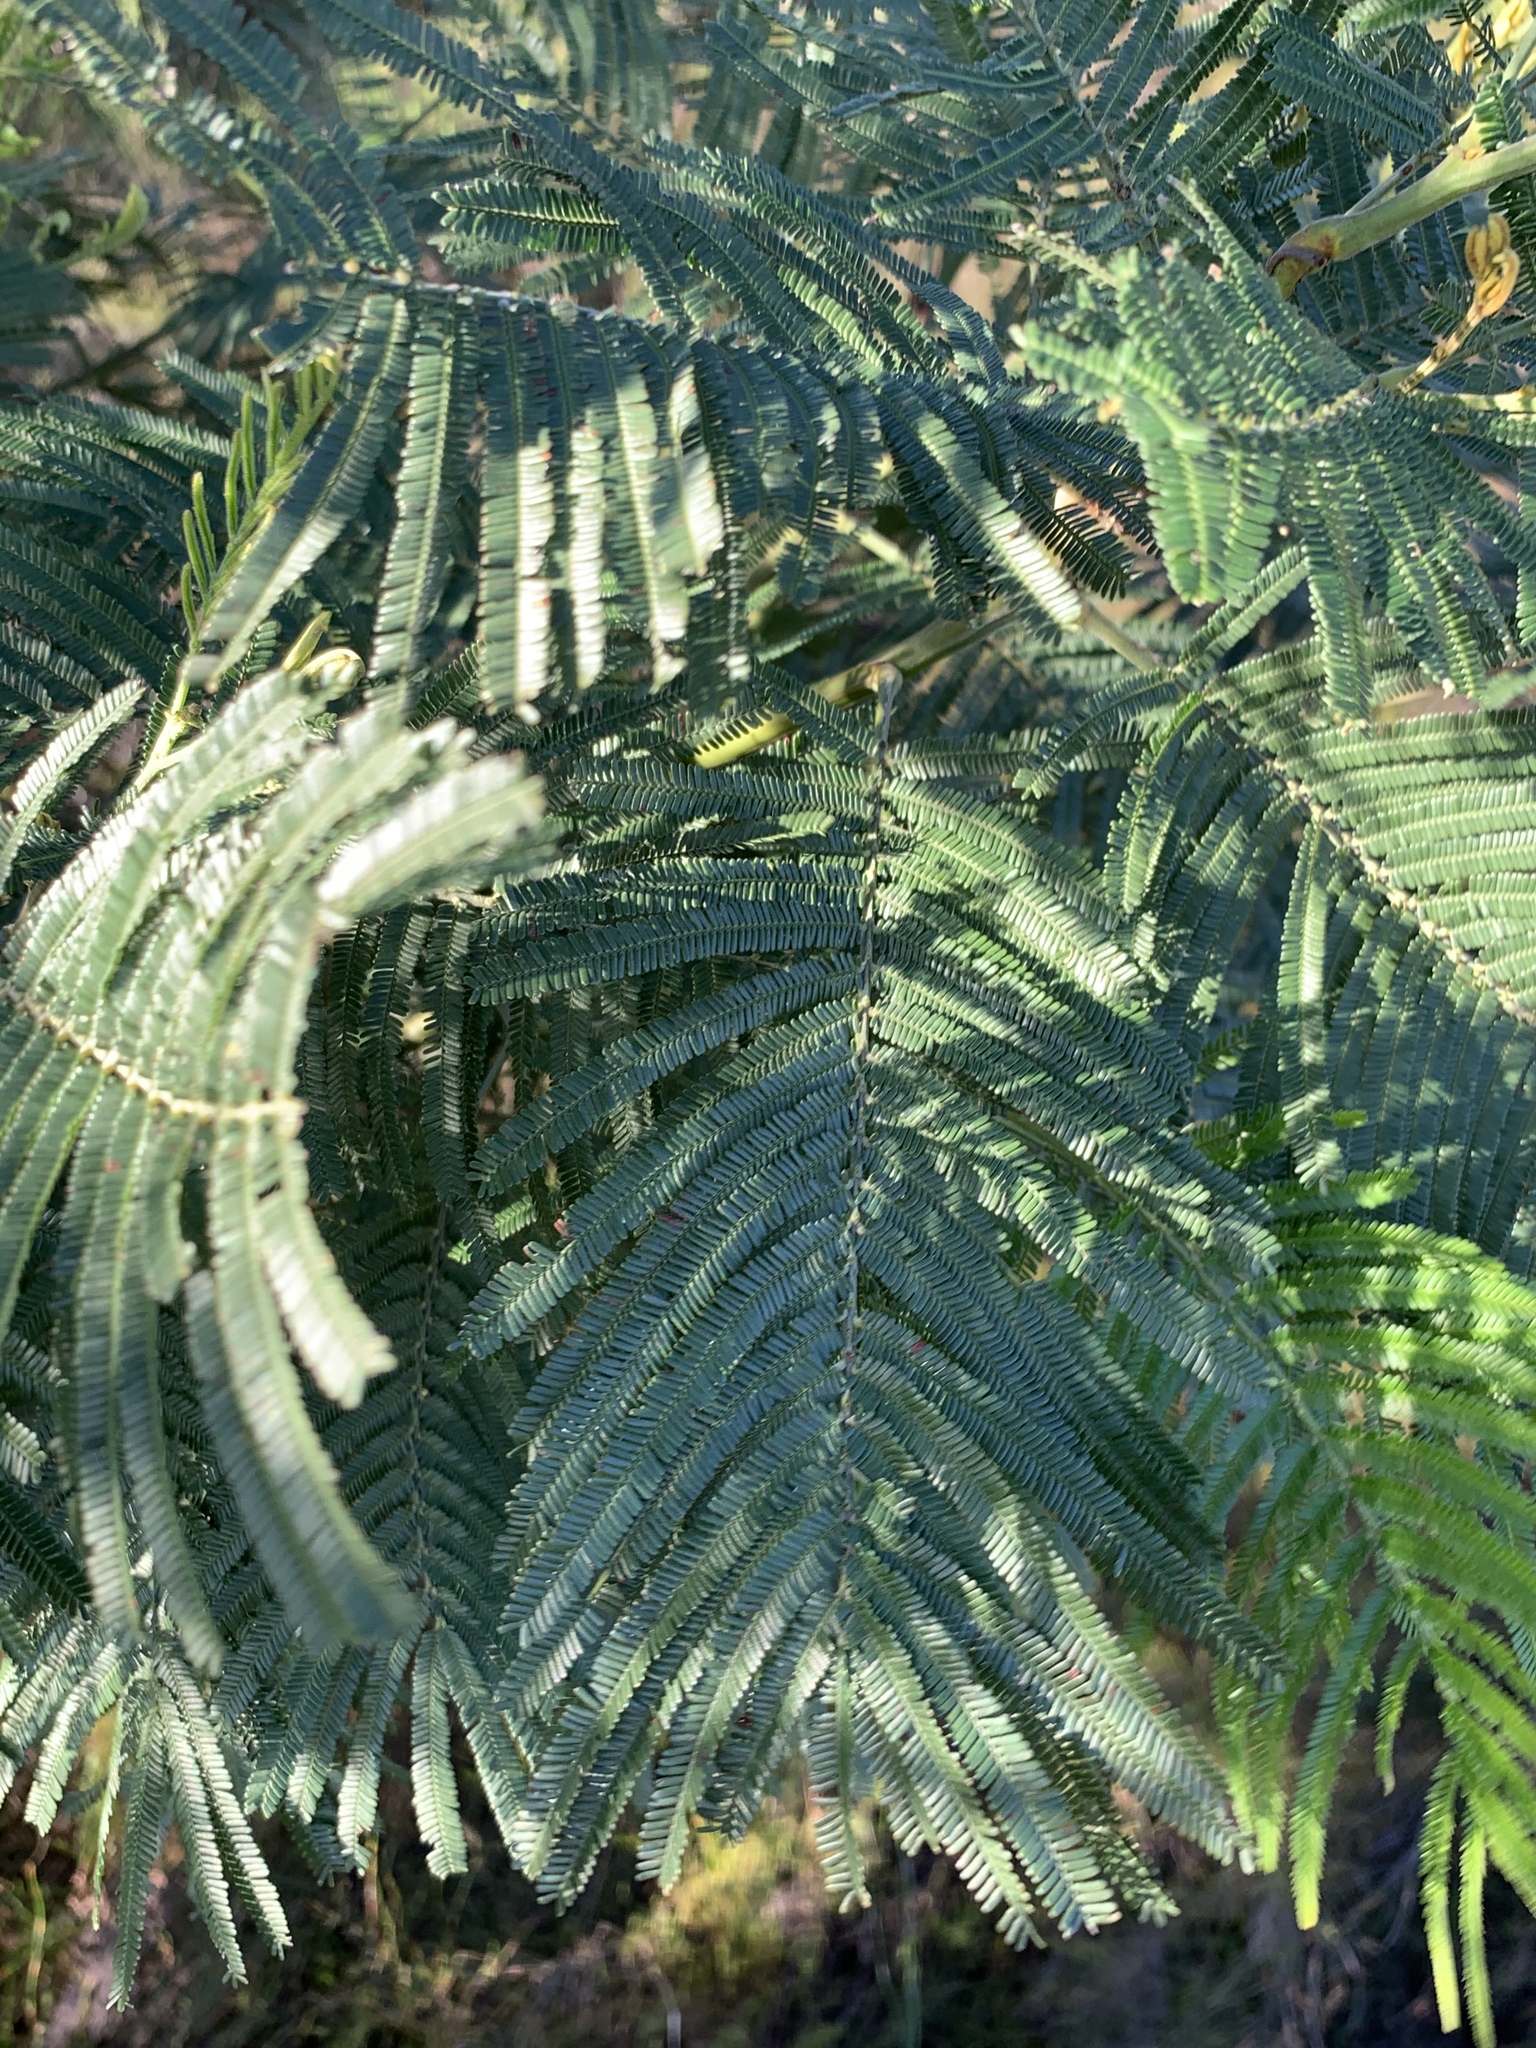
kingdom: Plantae
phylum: Tracheophyta
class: Magnoliopsida
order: Fabales
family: Fabaceae
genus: Acacia
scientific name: Acacia mearnsii
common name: Black wattle
